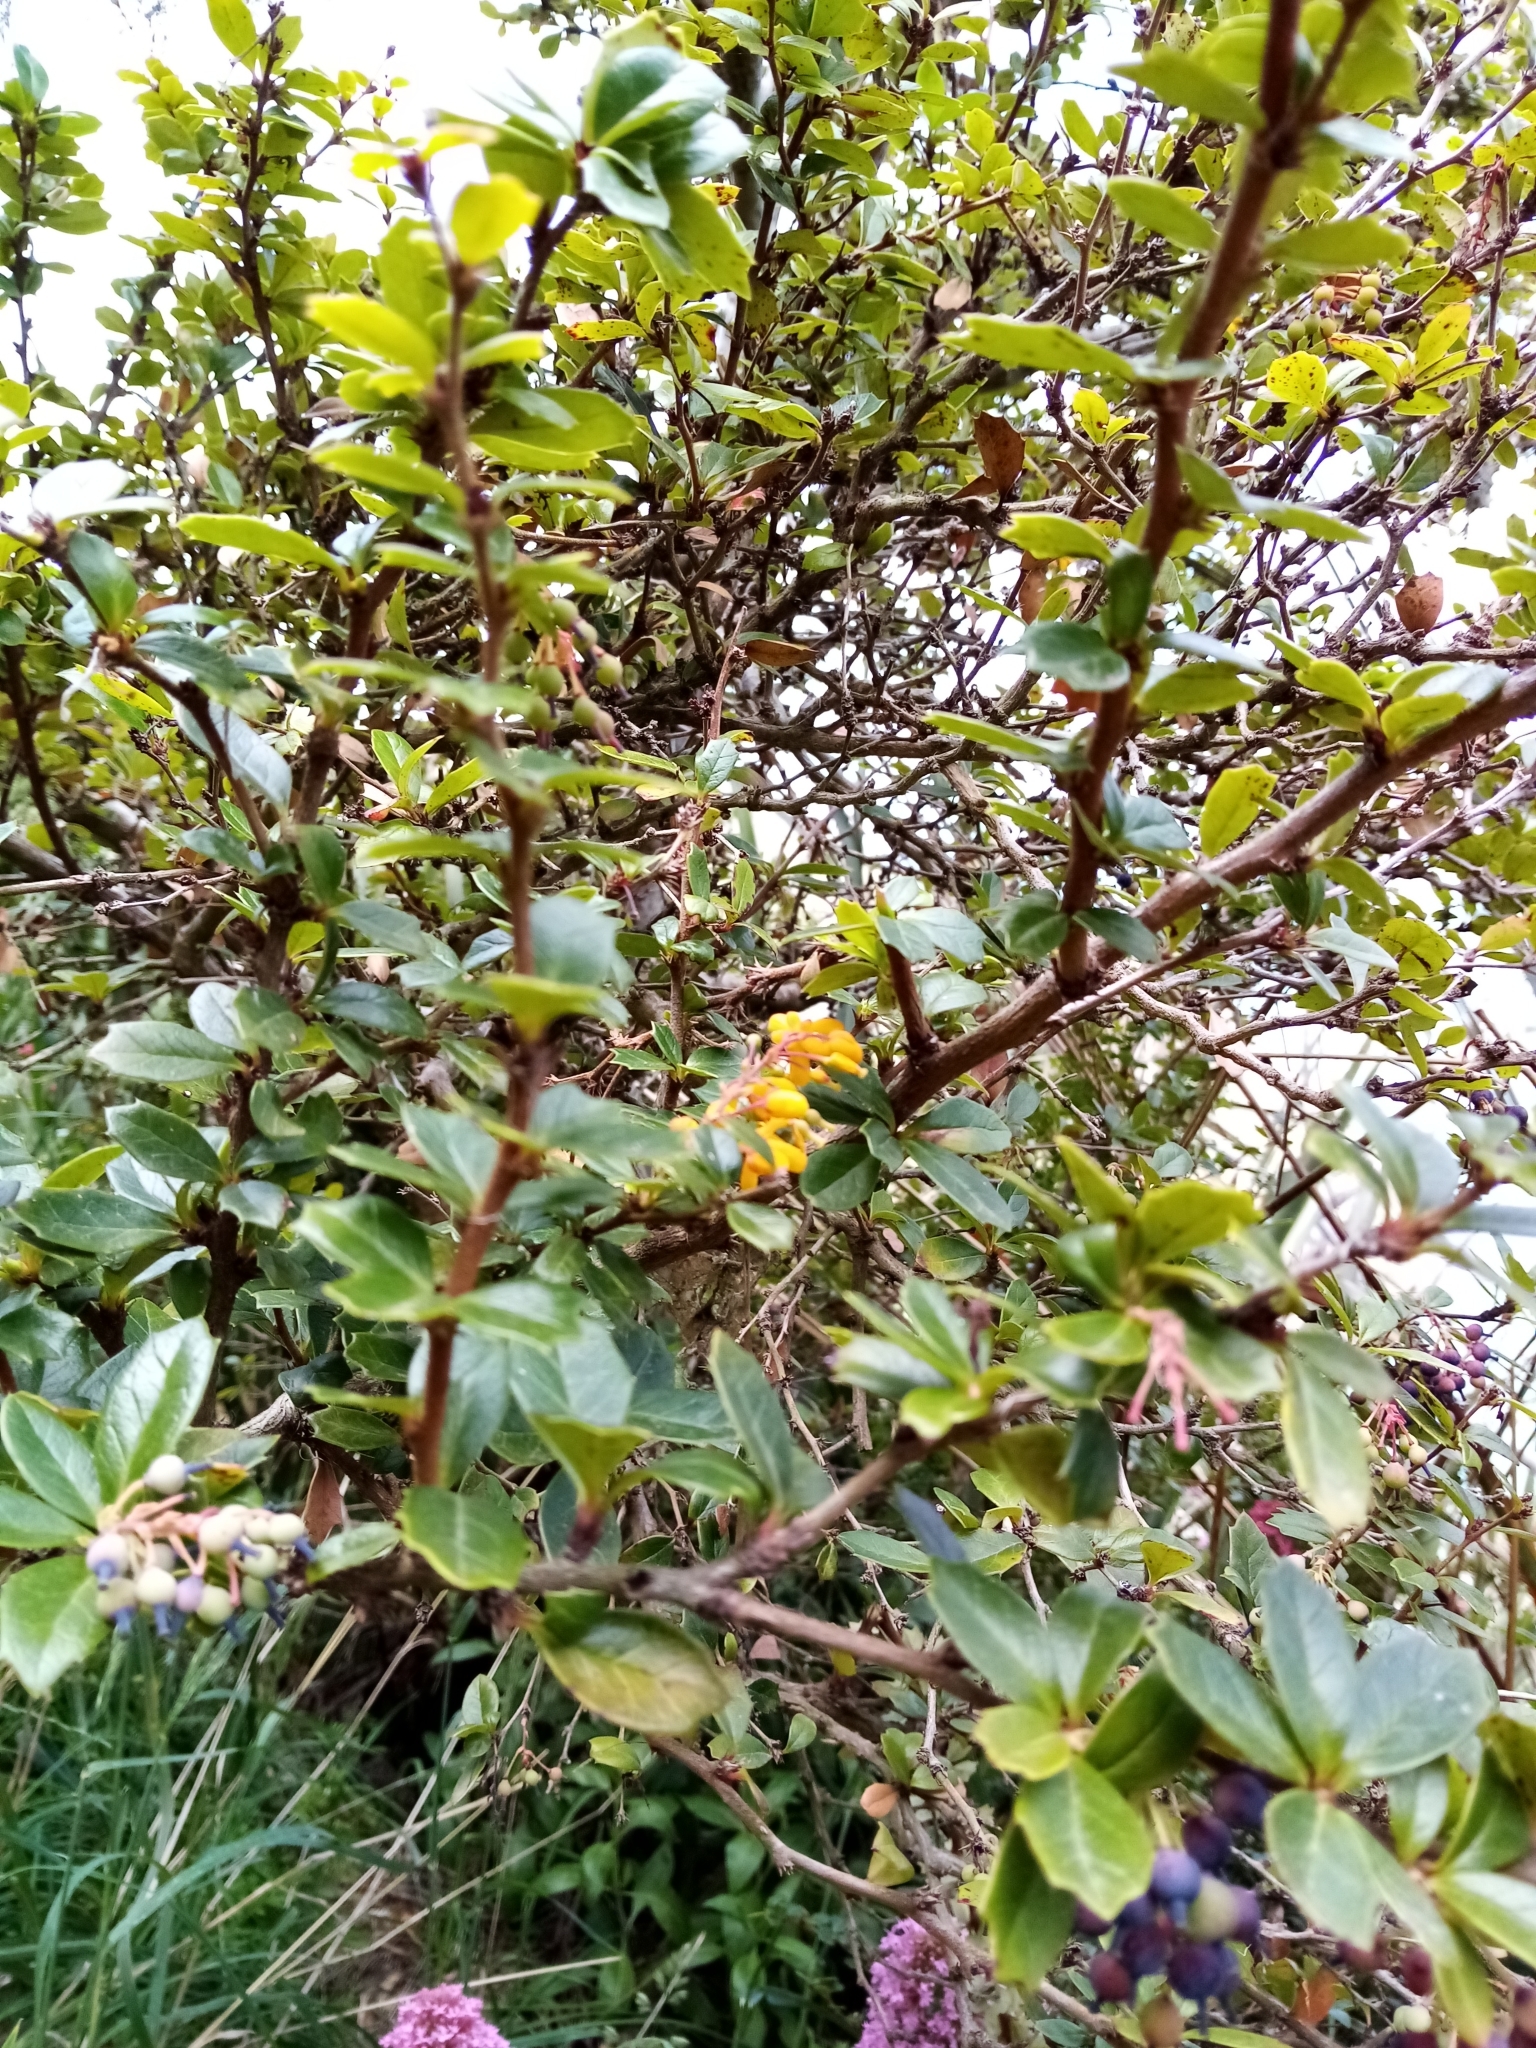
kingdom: Plantae
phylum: Tracheophyta
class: Magnoliopsida
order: Ranunculales
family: Berberidaceae
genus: Berberis
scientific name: Berberis darwinii
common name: Darwin's barberry
